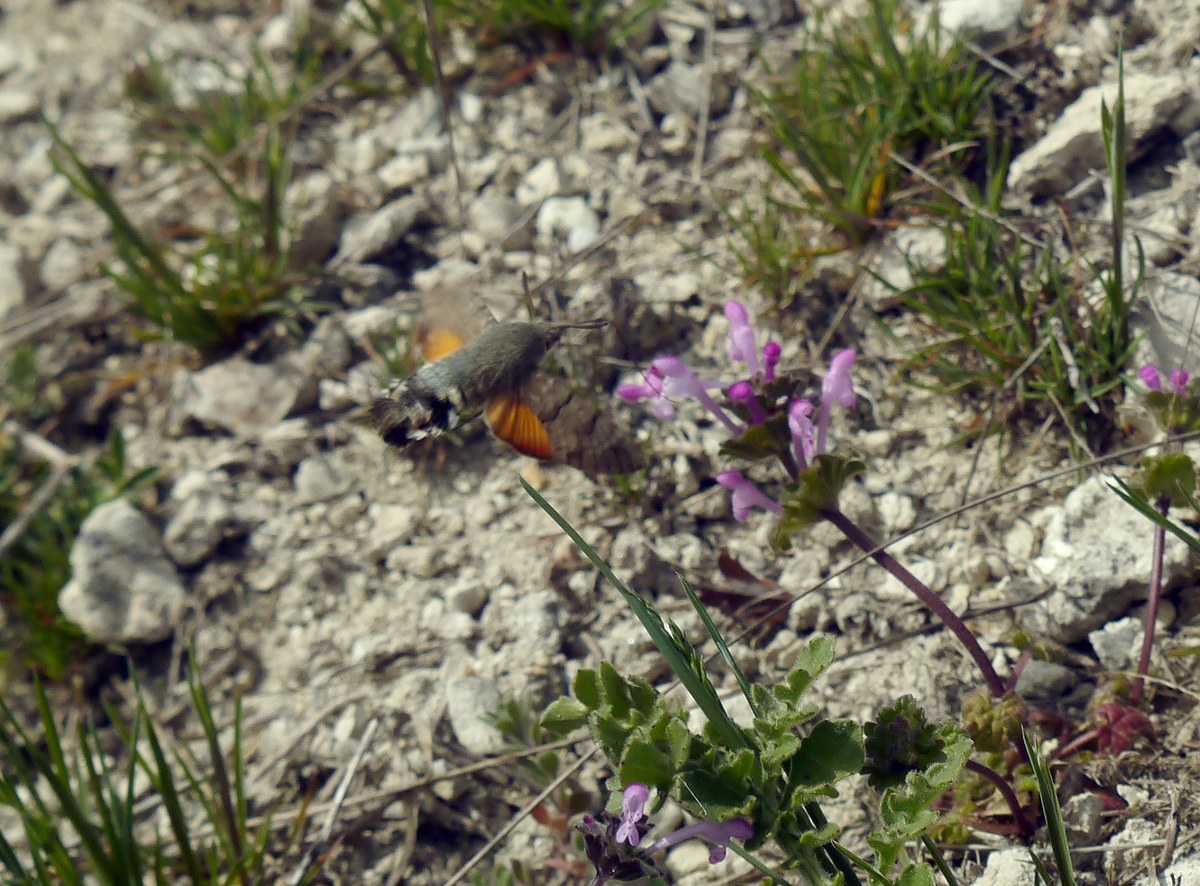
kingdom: Animalia
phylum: Arthropoda
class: Insecta
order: Lepidoptera
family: Sphingidae
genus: Macroglossum
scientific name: Macroglossum stellatarum
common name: Humming-bird hawk-moth
